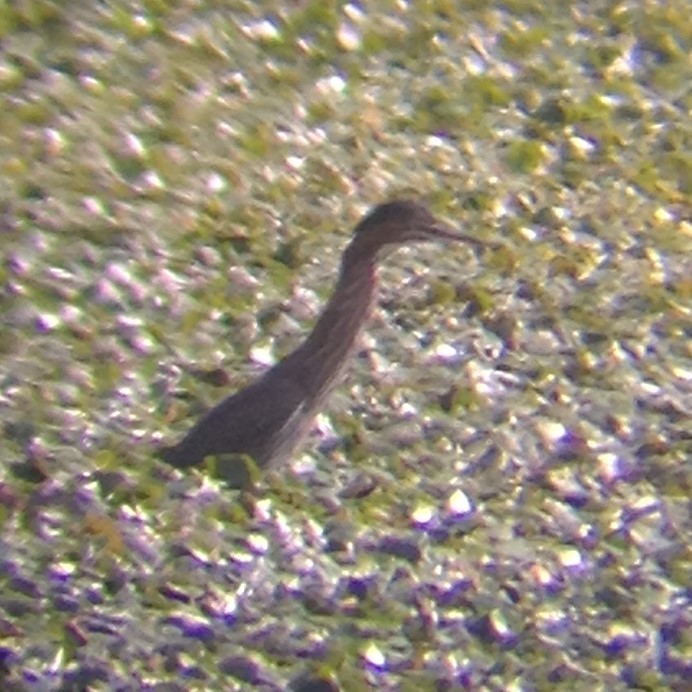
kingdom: Animalia
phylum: Chordata
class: Aves
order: Pelecaniformes
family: Ardeidae
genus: Butorides
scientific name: Butorides virescens
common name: Green heron
